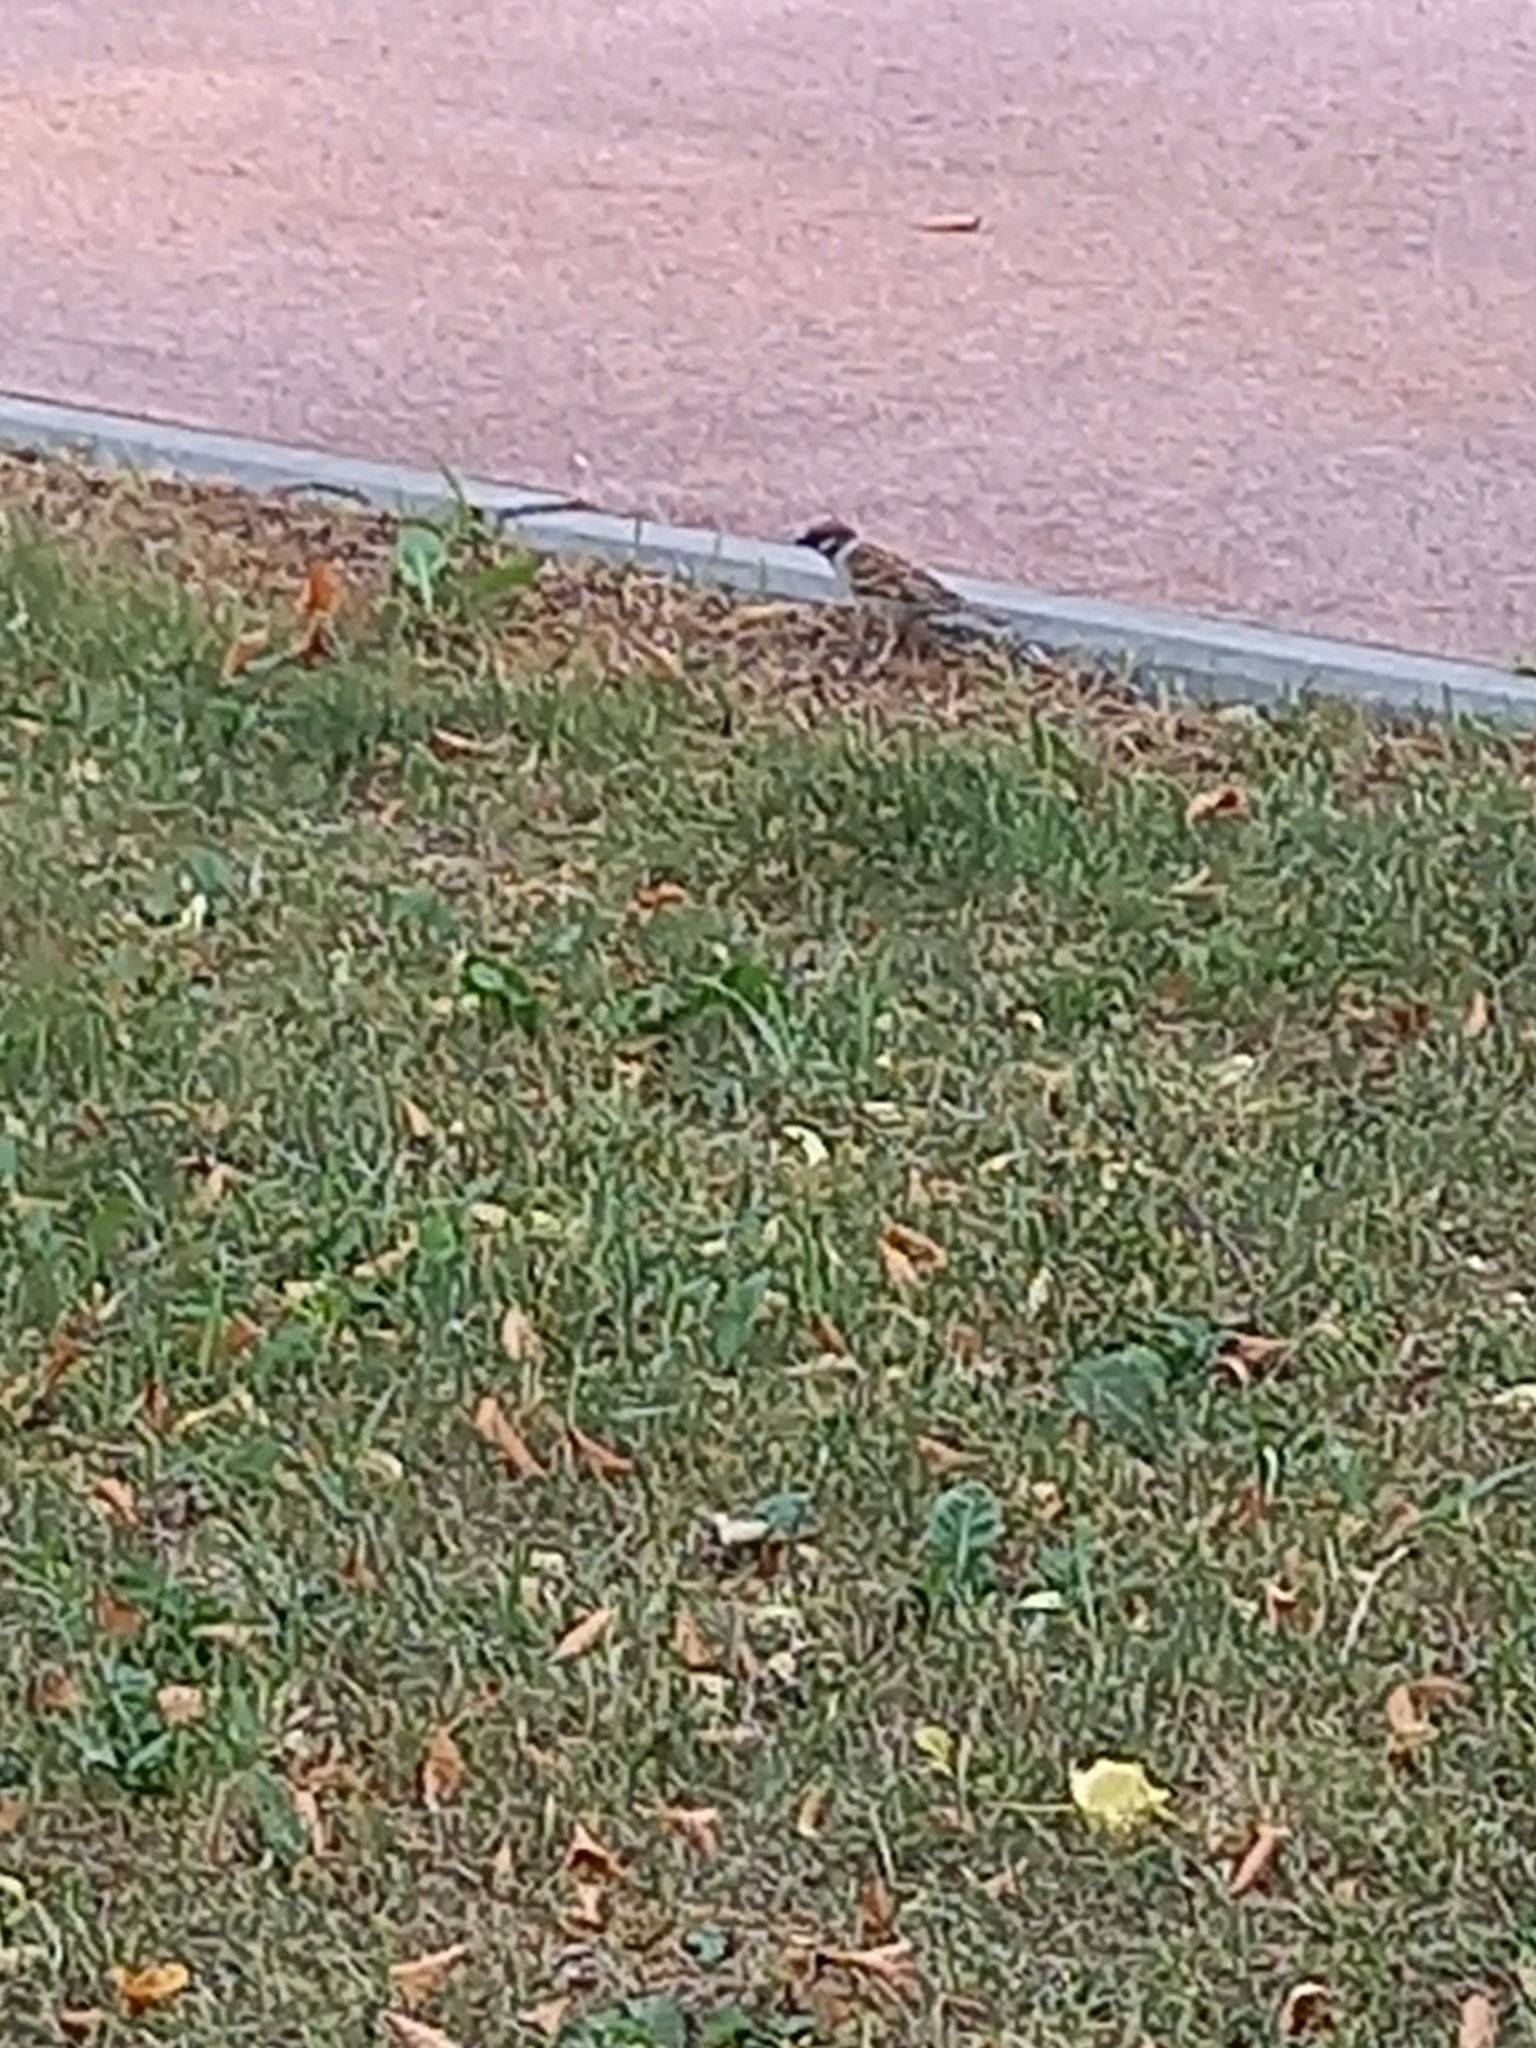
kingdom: Animalia
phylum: Chordata
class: Aves
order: Passeriformes
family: Passeridae
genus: Passer
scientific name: Passer montanus
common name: Eurasian tree sparrow
